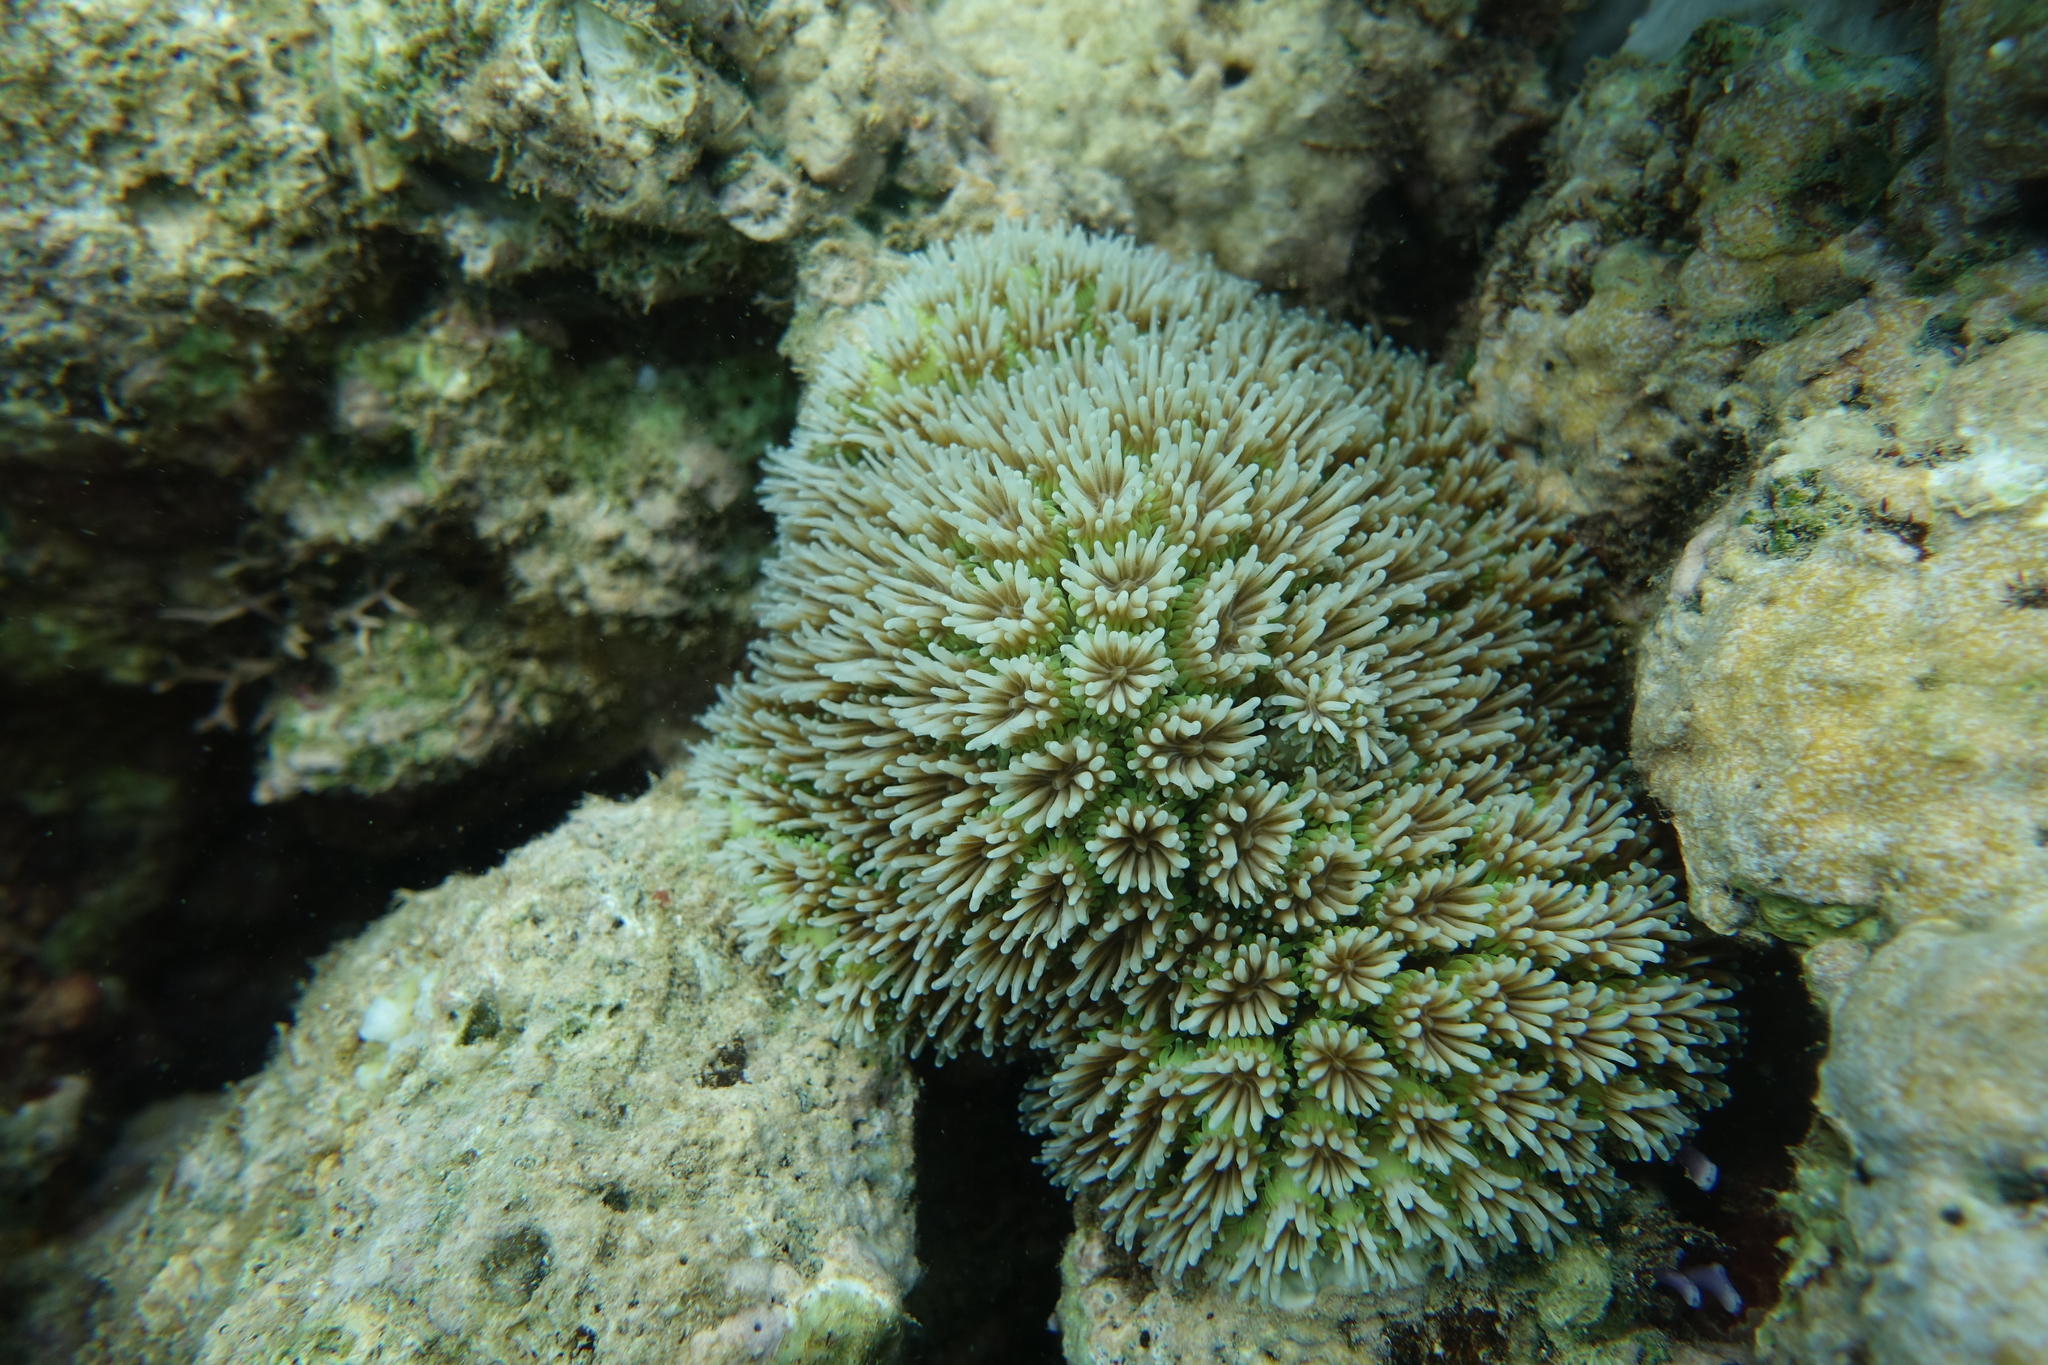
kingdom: Animalia
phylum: Cnidaria
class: Anthozoa
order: Scleractinia
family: Euphylliidae
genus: Galaxea
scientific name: Galaxea fascicularis
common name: Octopus coral
